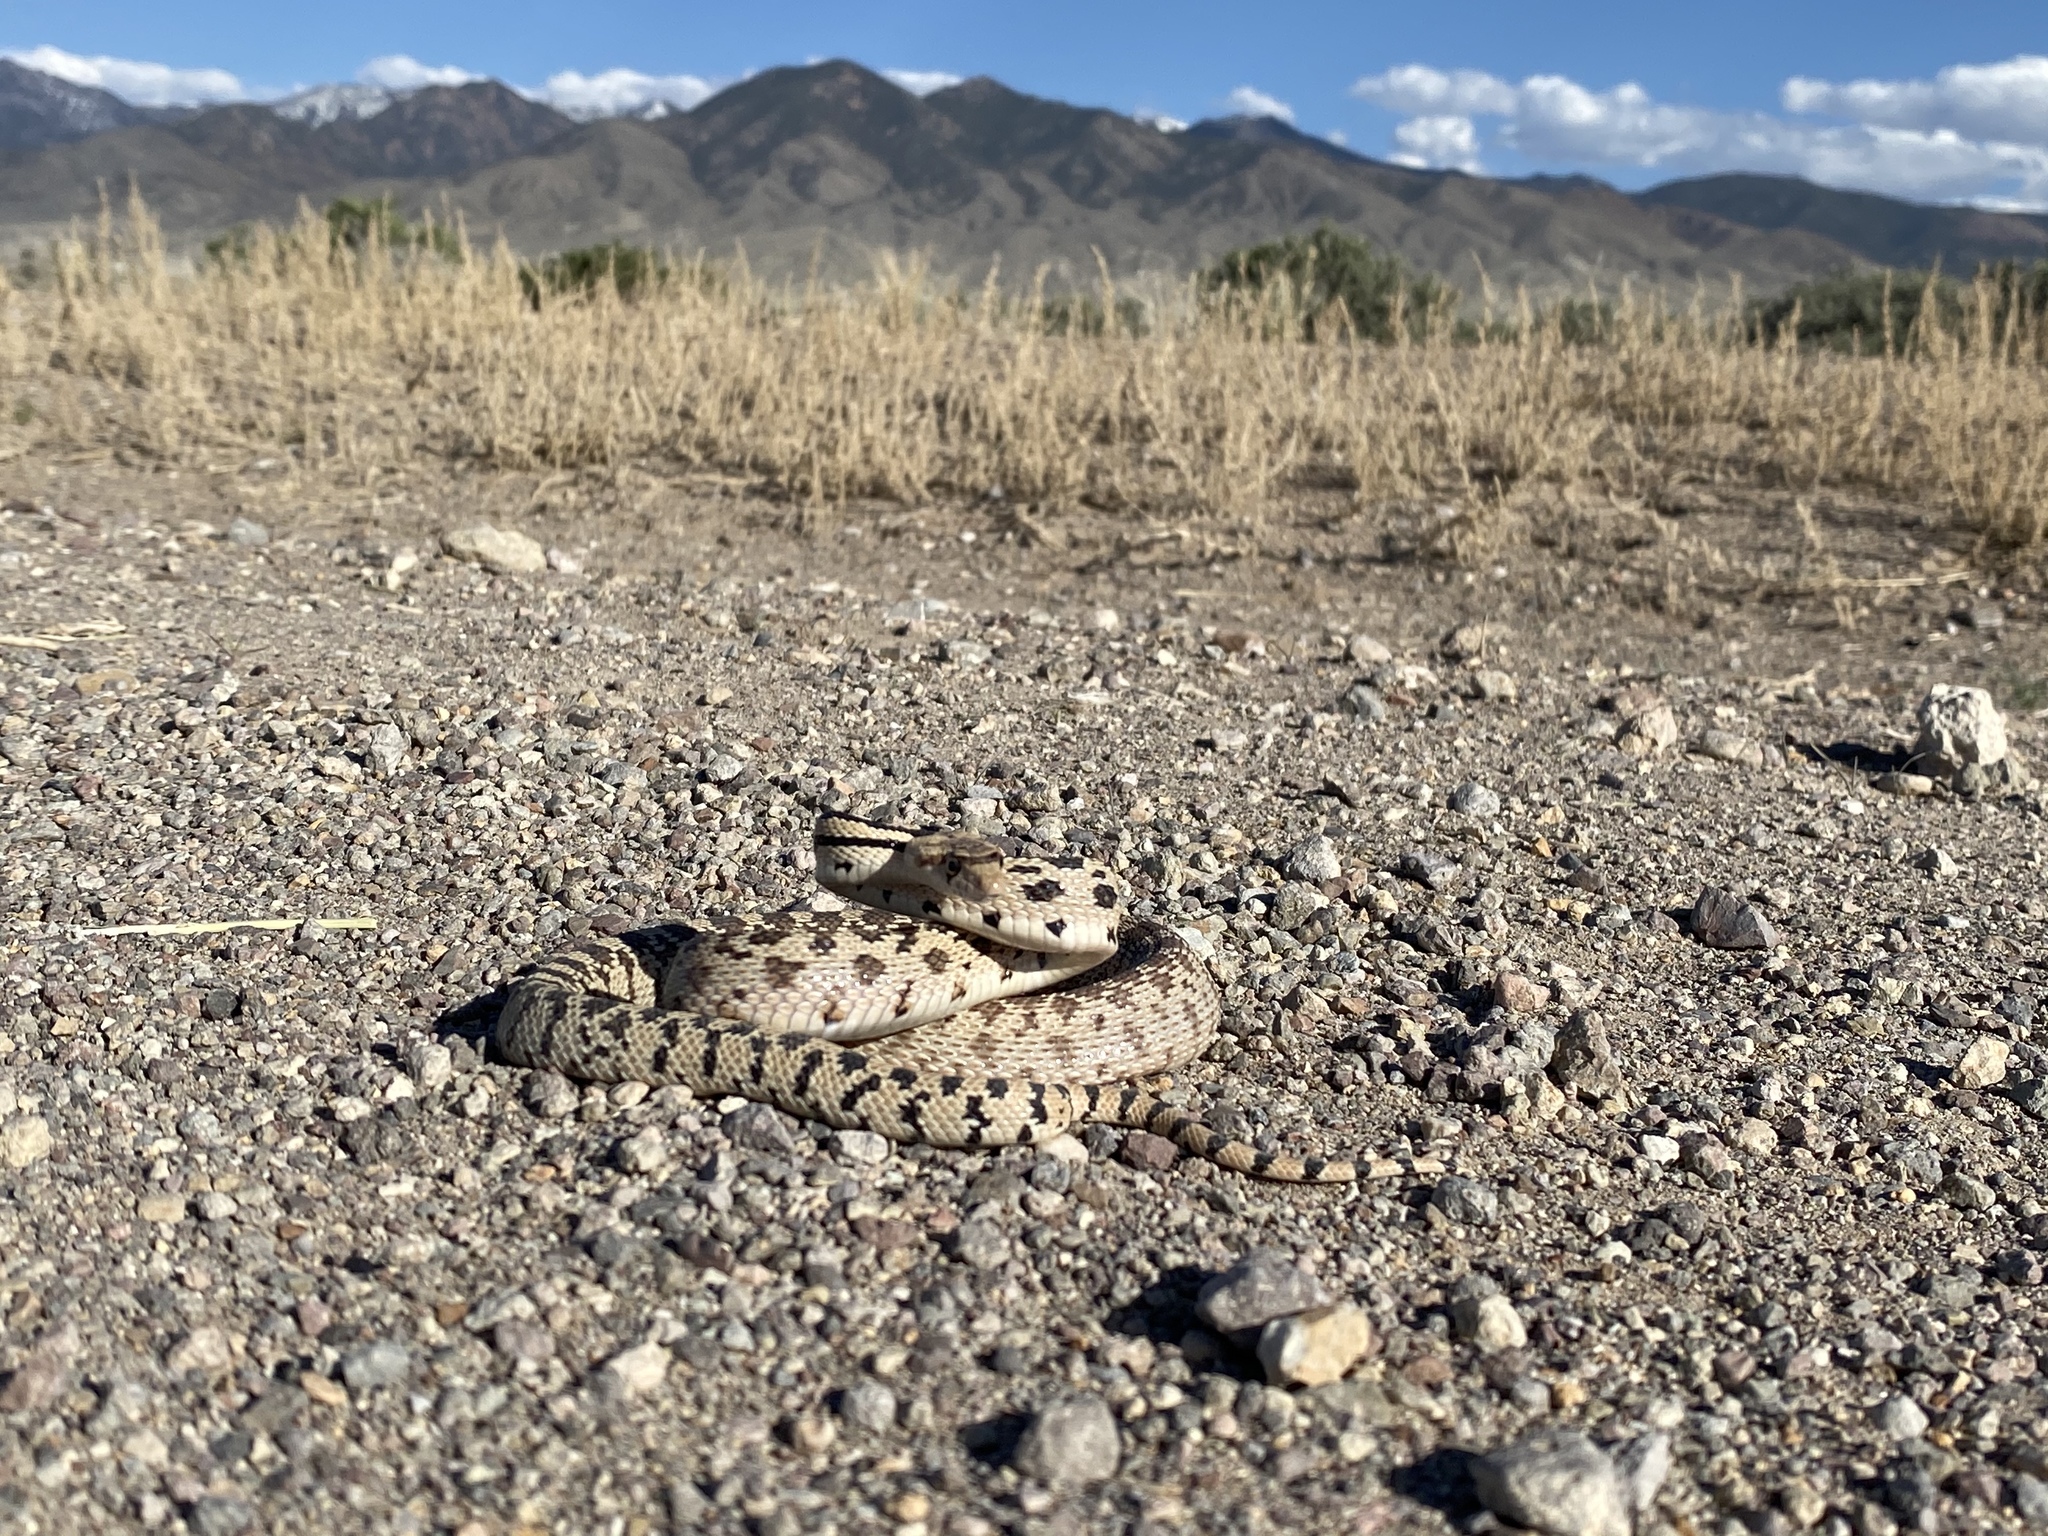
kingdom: Animalia
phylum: Chordata
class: Squamata
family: Colubridae
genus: Pituophis
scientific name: Pituophis catenifer
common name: Gopher snake
